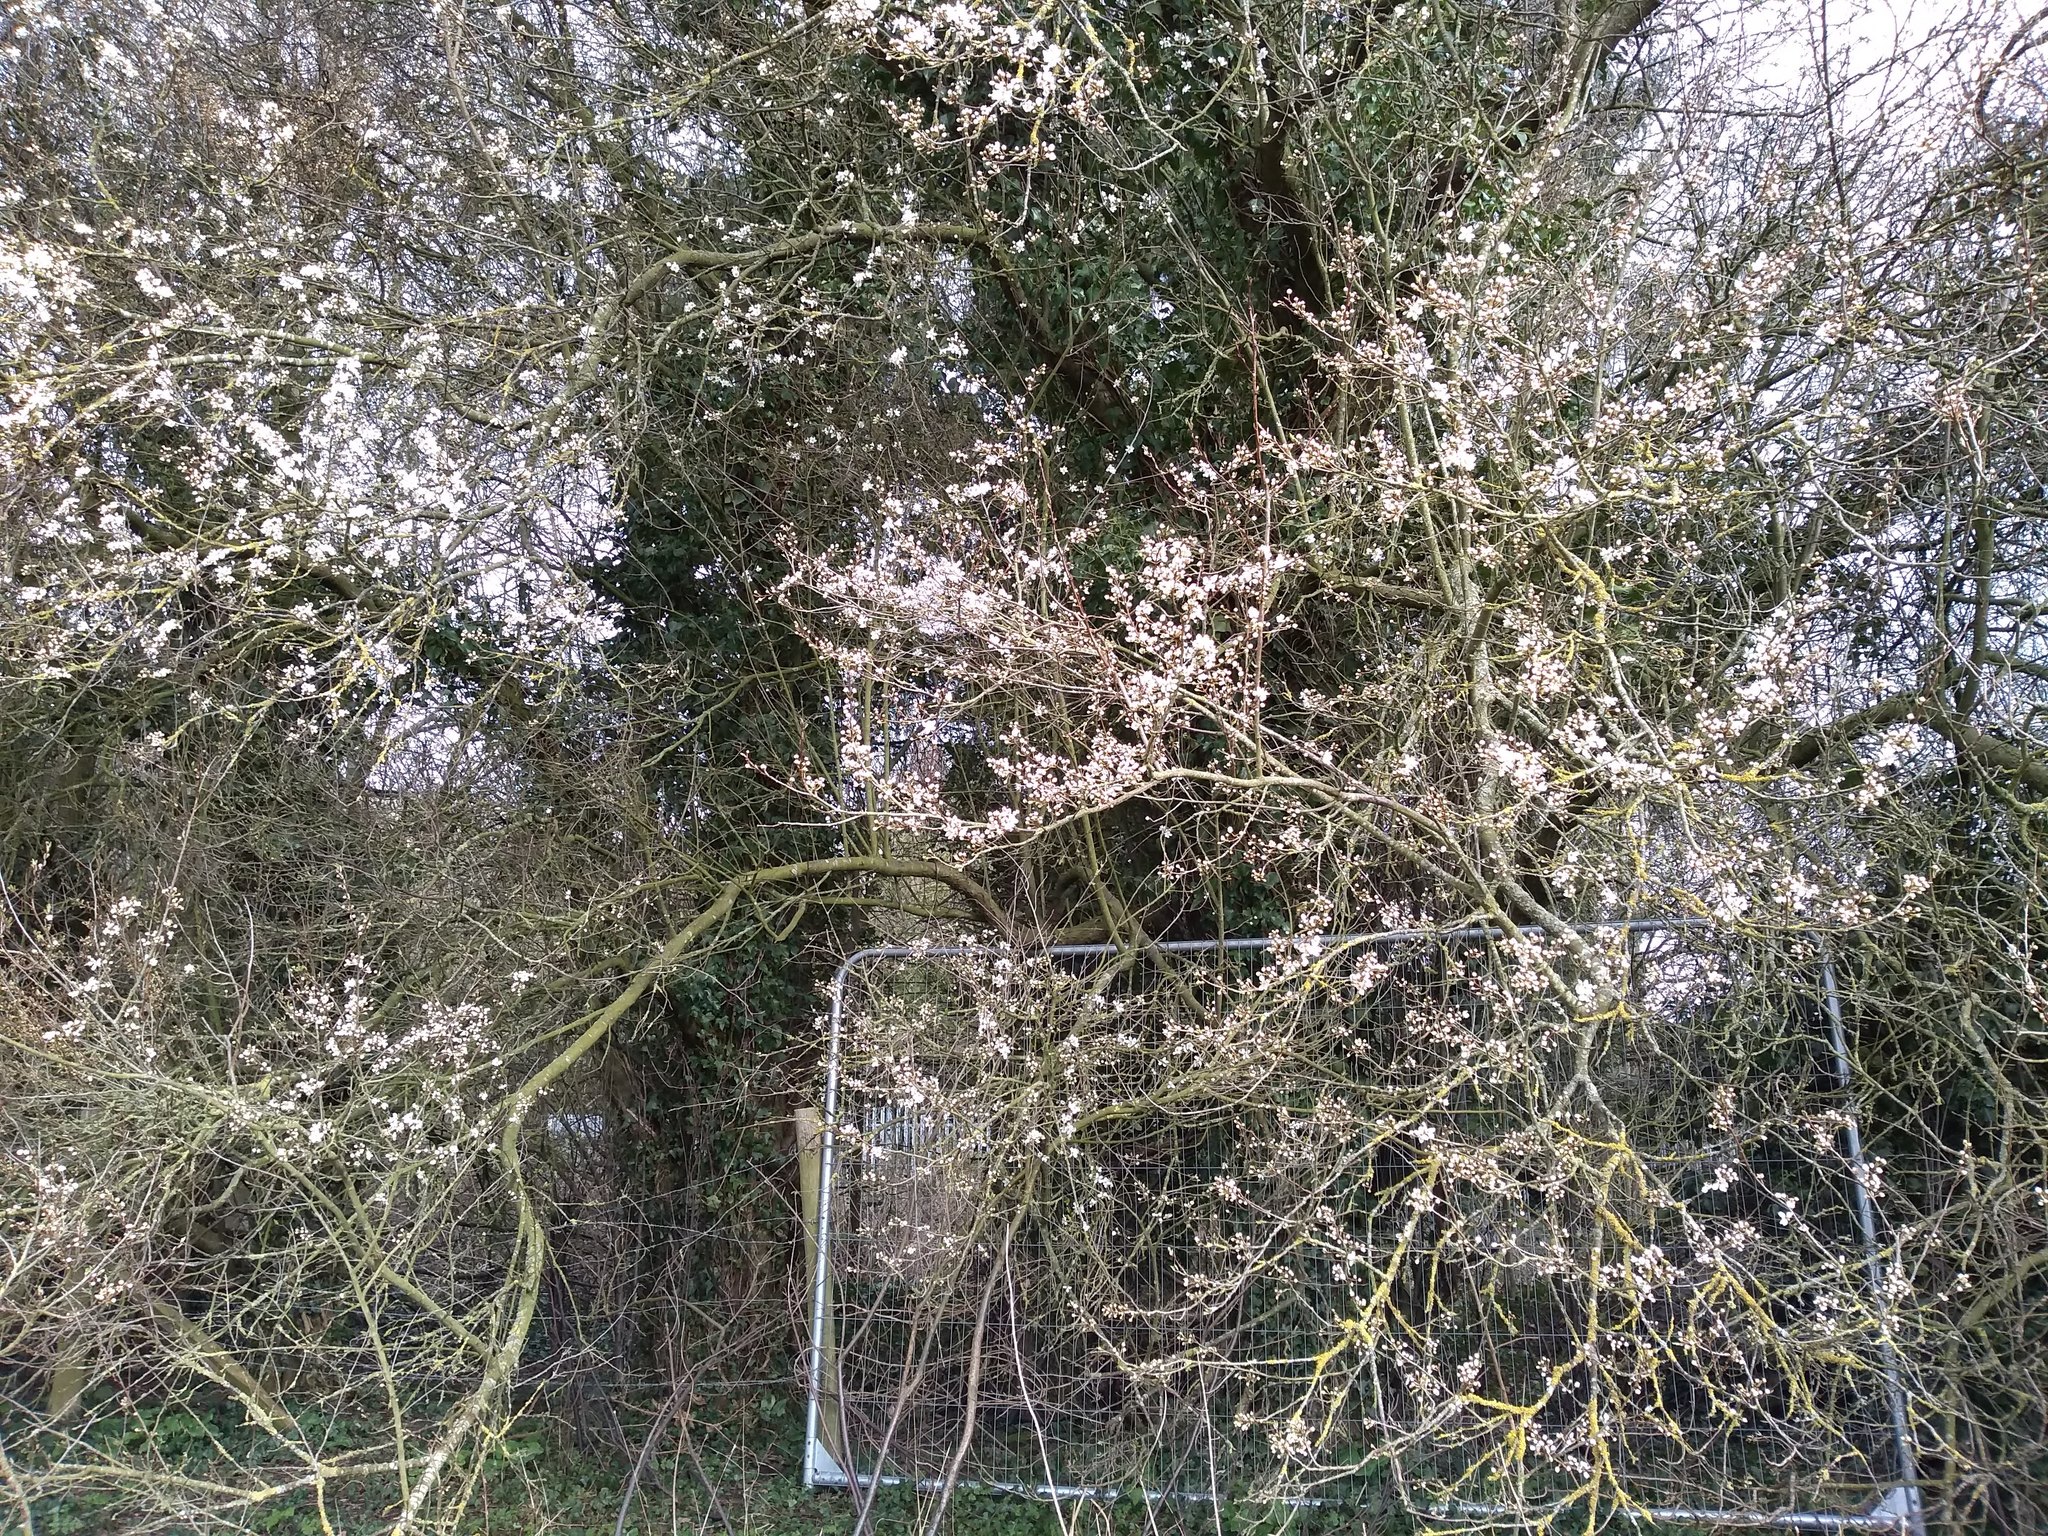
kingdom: Plantae
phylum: Tracheophyta
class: Magnoliopsida
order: Rosales
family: Rosaceae
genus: Prunus
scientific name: Prunus cerasifera
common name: Cherry plum
